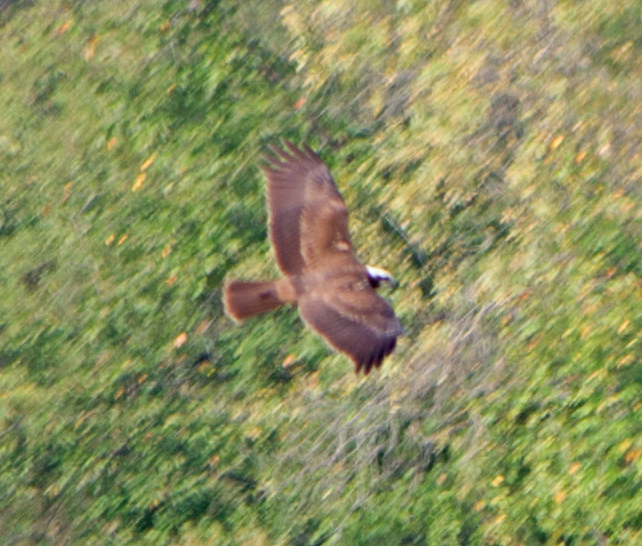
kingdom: Animalia
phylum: Chordata
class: Aves
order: Accipitriformes
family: Accipitridae
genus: Circus
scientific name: Circus aeruginosus
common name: Western marsh harrier
